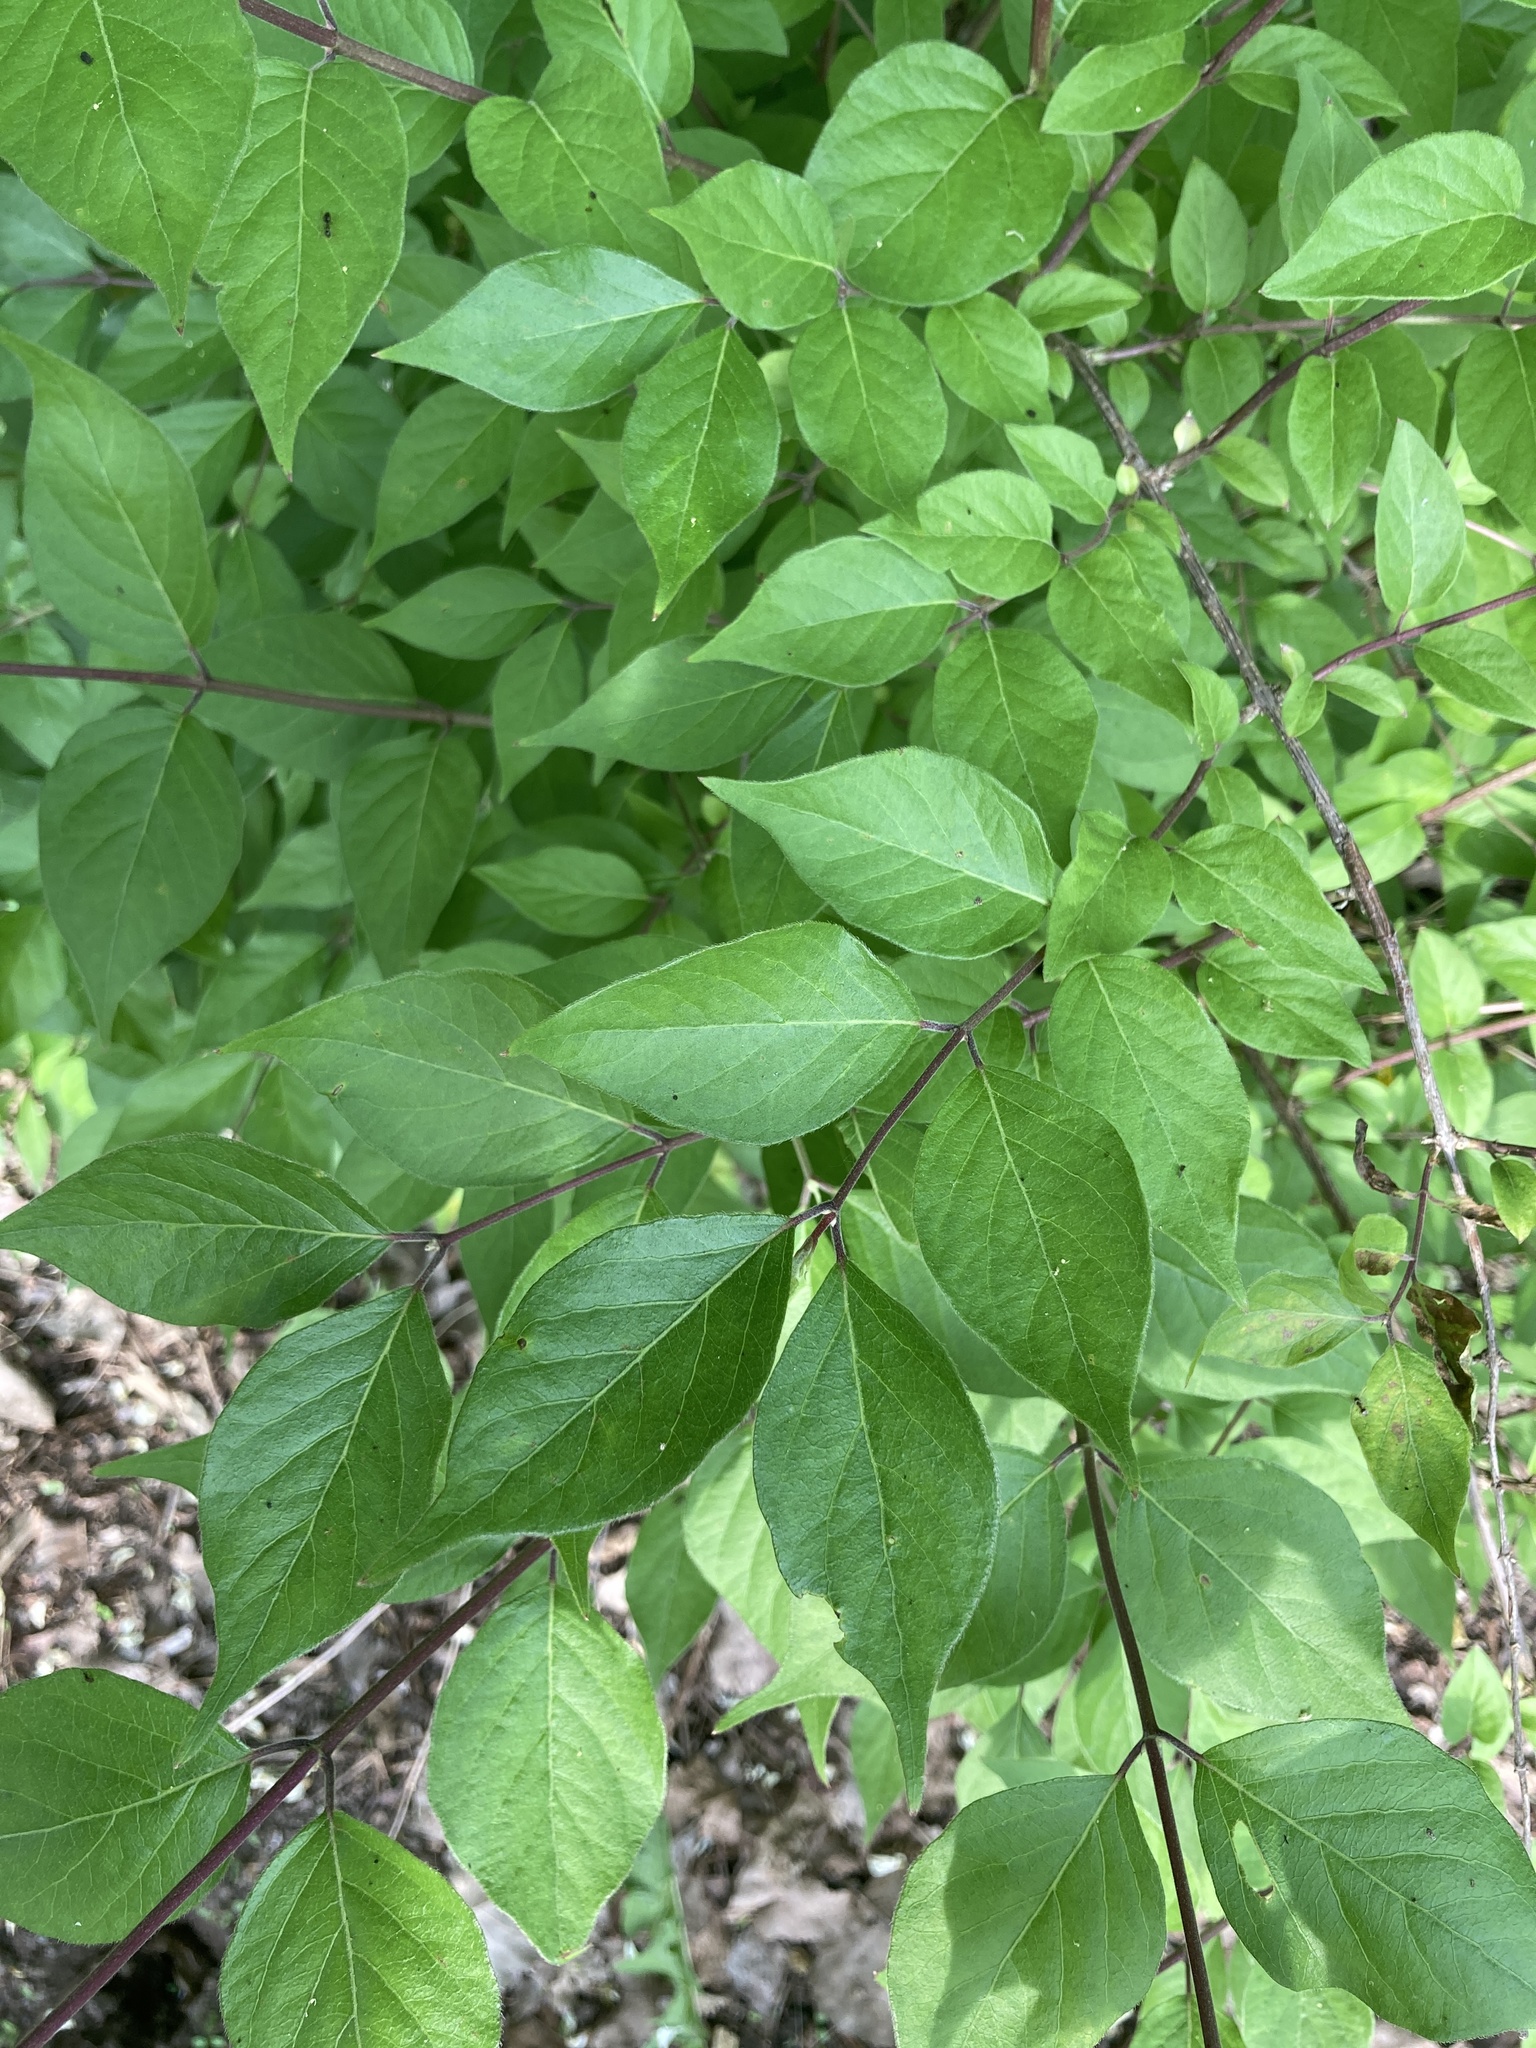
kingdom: Plantae
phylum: Tracheophyta
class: Magnoliopsida
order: Dipsacales
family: Caprifoliaceae
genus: Lonicera
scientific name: Lonicera maackii
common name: Amur honeysuckle
